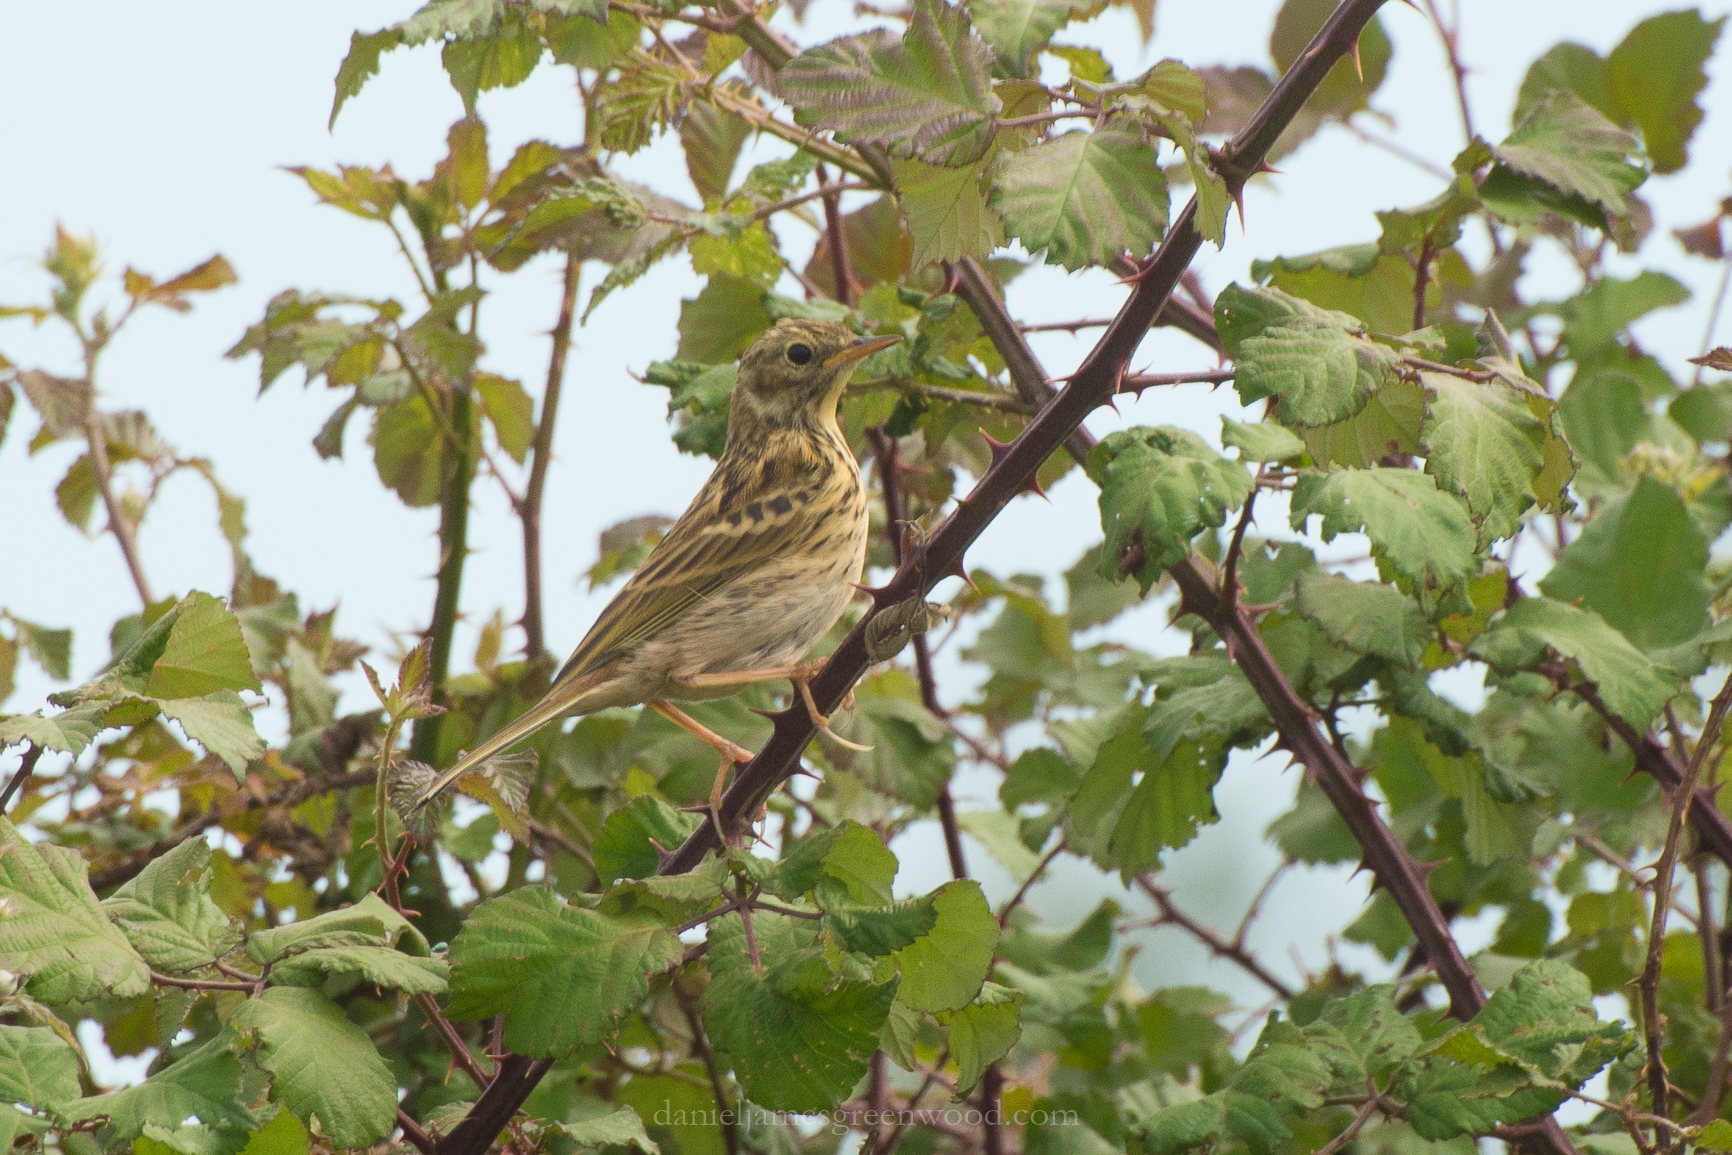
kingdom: Animalia
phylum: Chordata
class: Aves
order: Passeriformes
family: Motacillidae
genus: Anthus
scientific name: Anthus pratensis
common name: Meadow pipit
